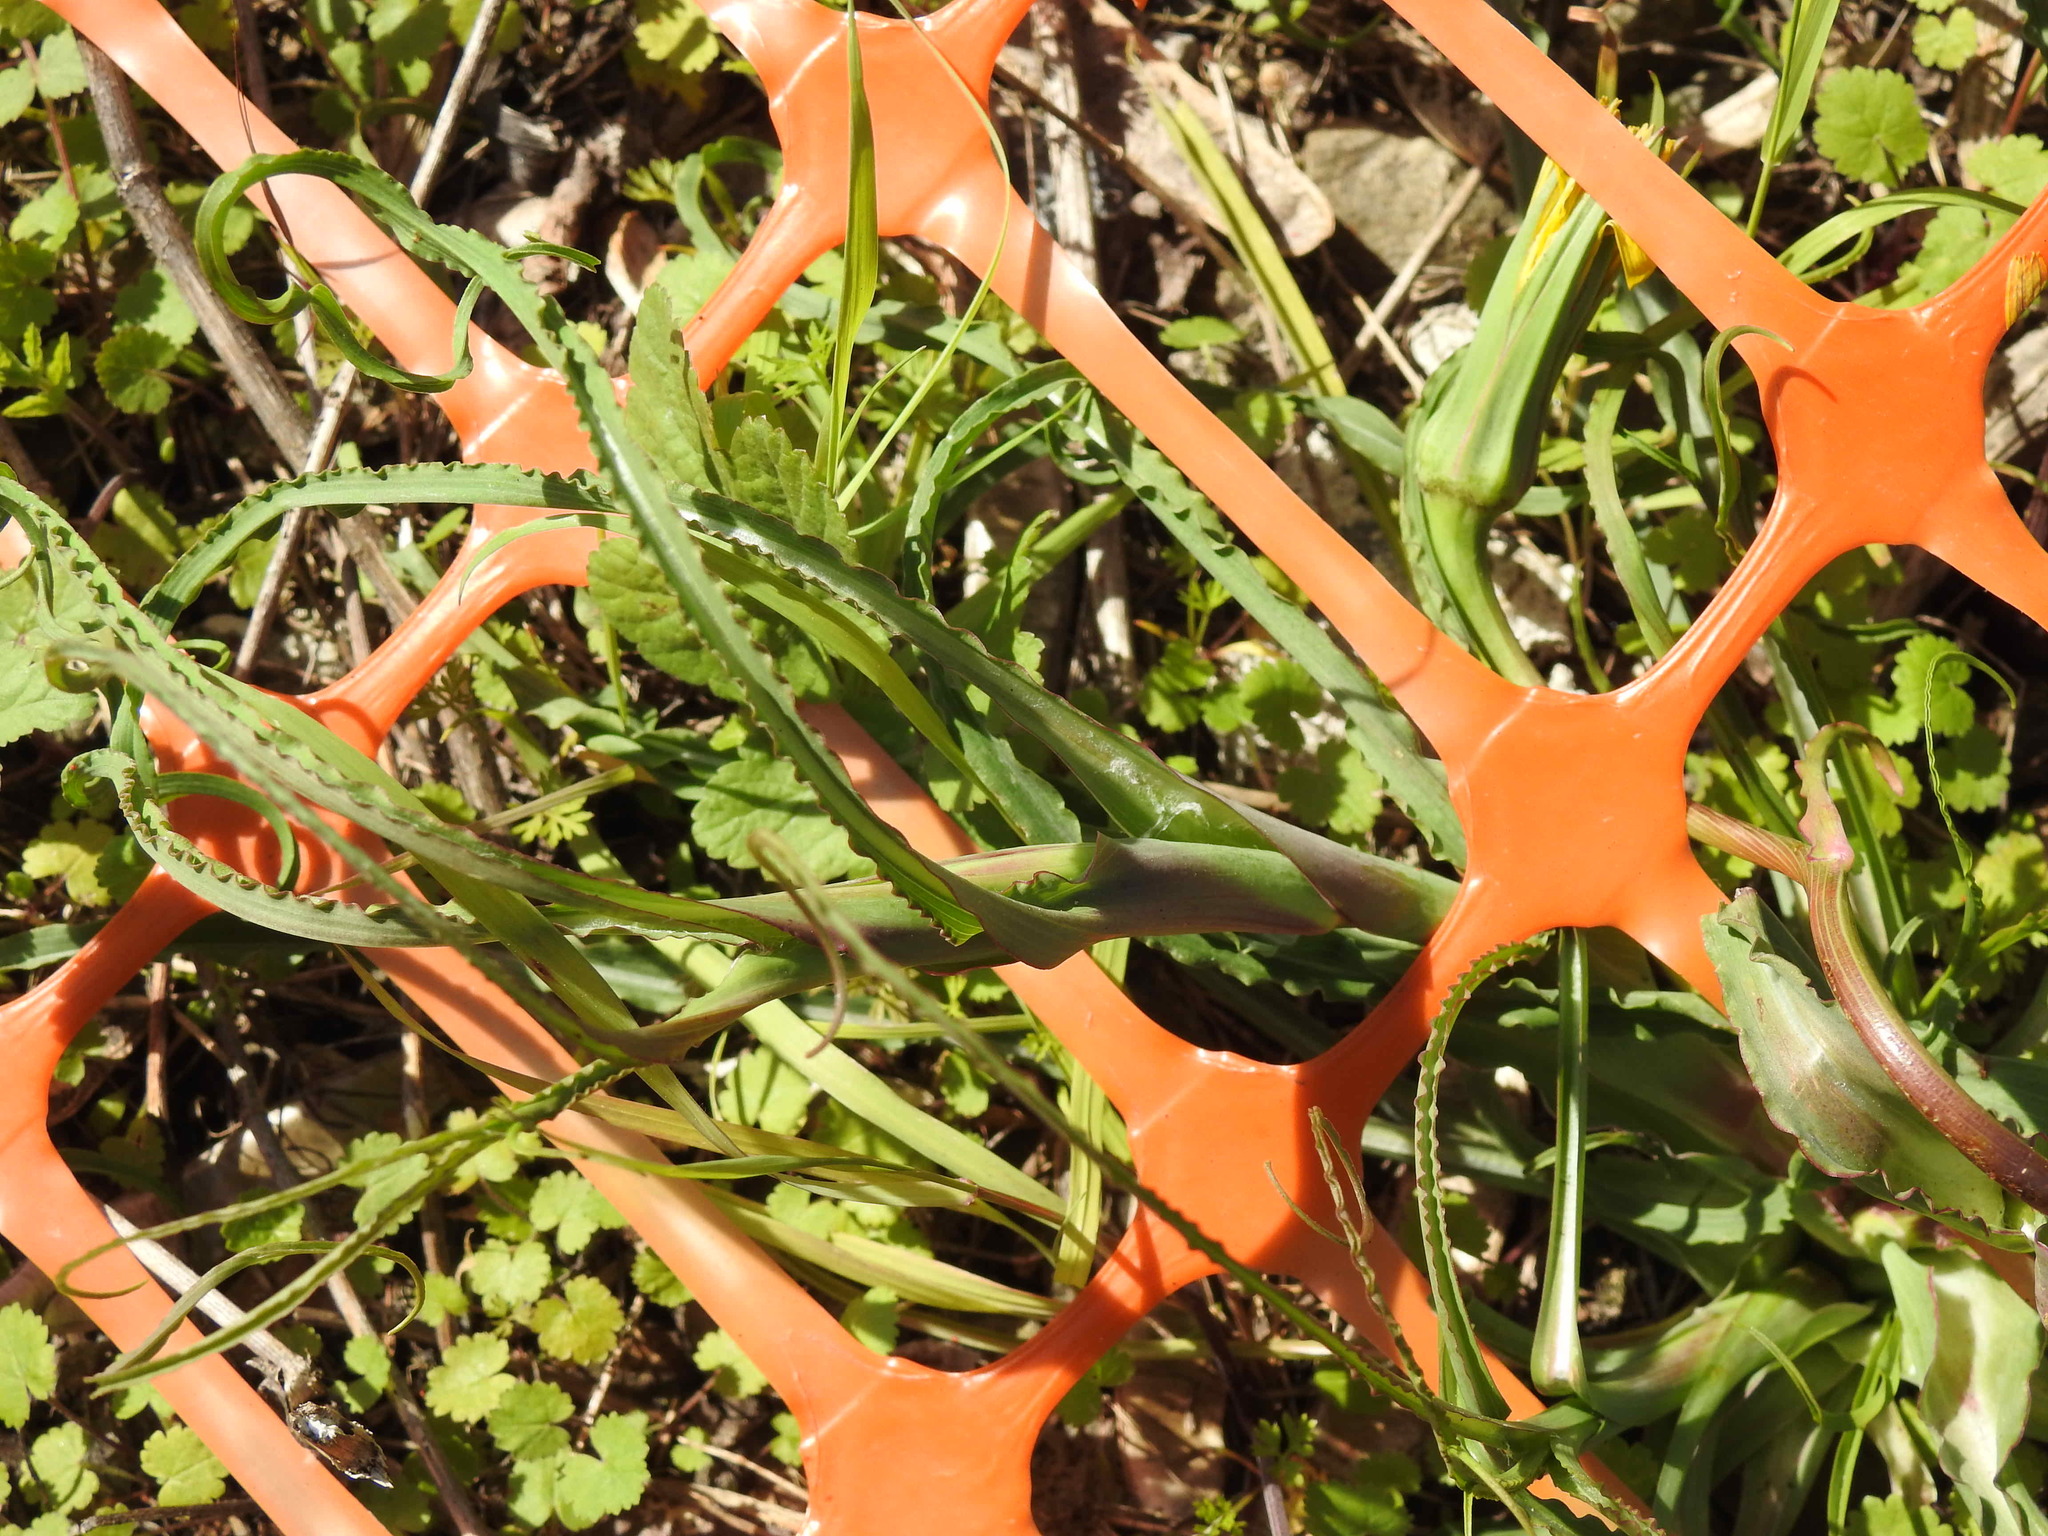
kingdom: Plantae
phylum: Tracheophyta
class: Magnoliopsida
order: Asterales
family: Asteraceae
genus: Tragopogon
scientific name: Tragopogon pratensis
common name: Goat's-beard
